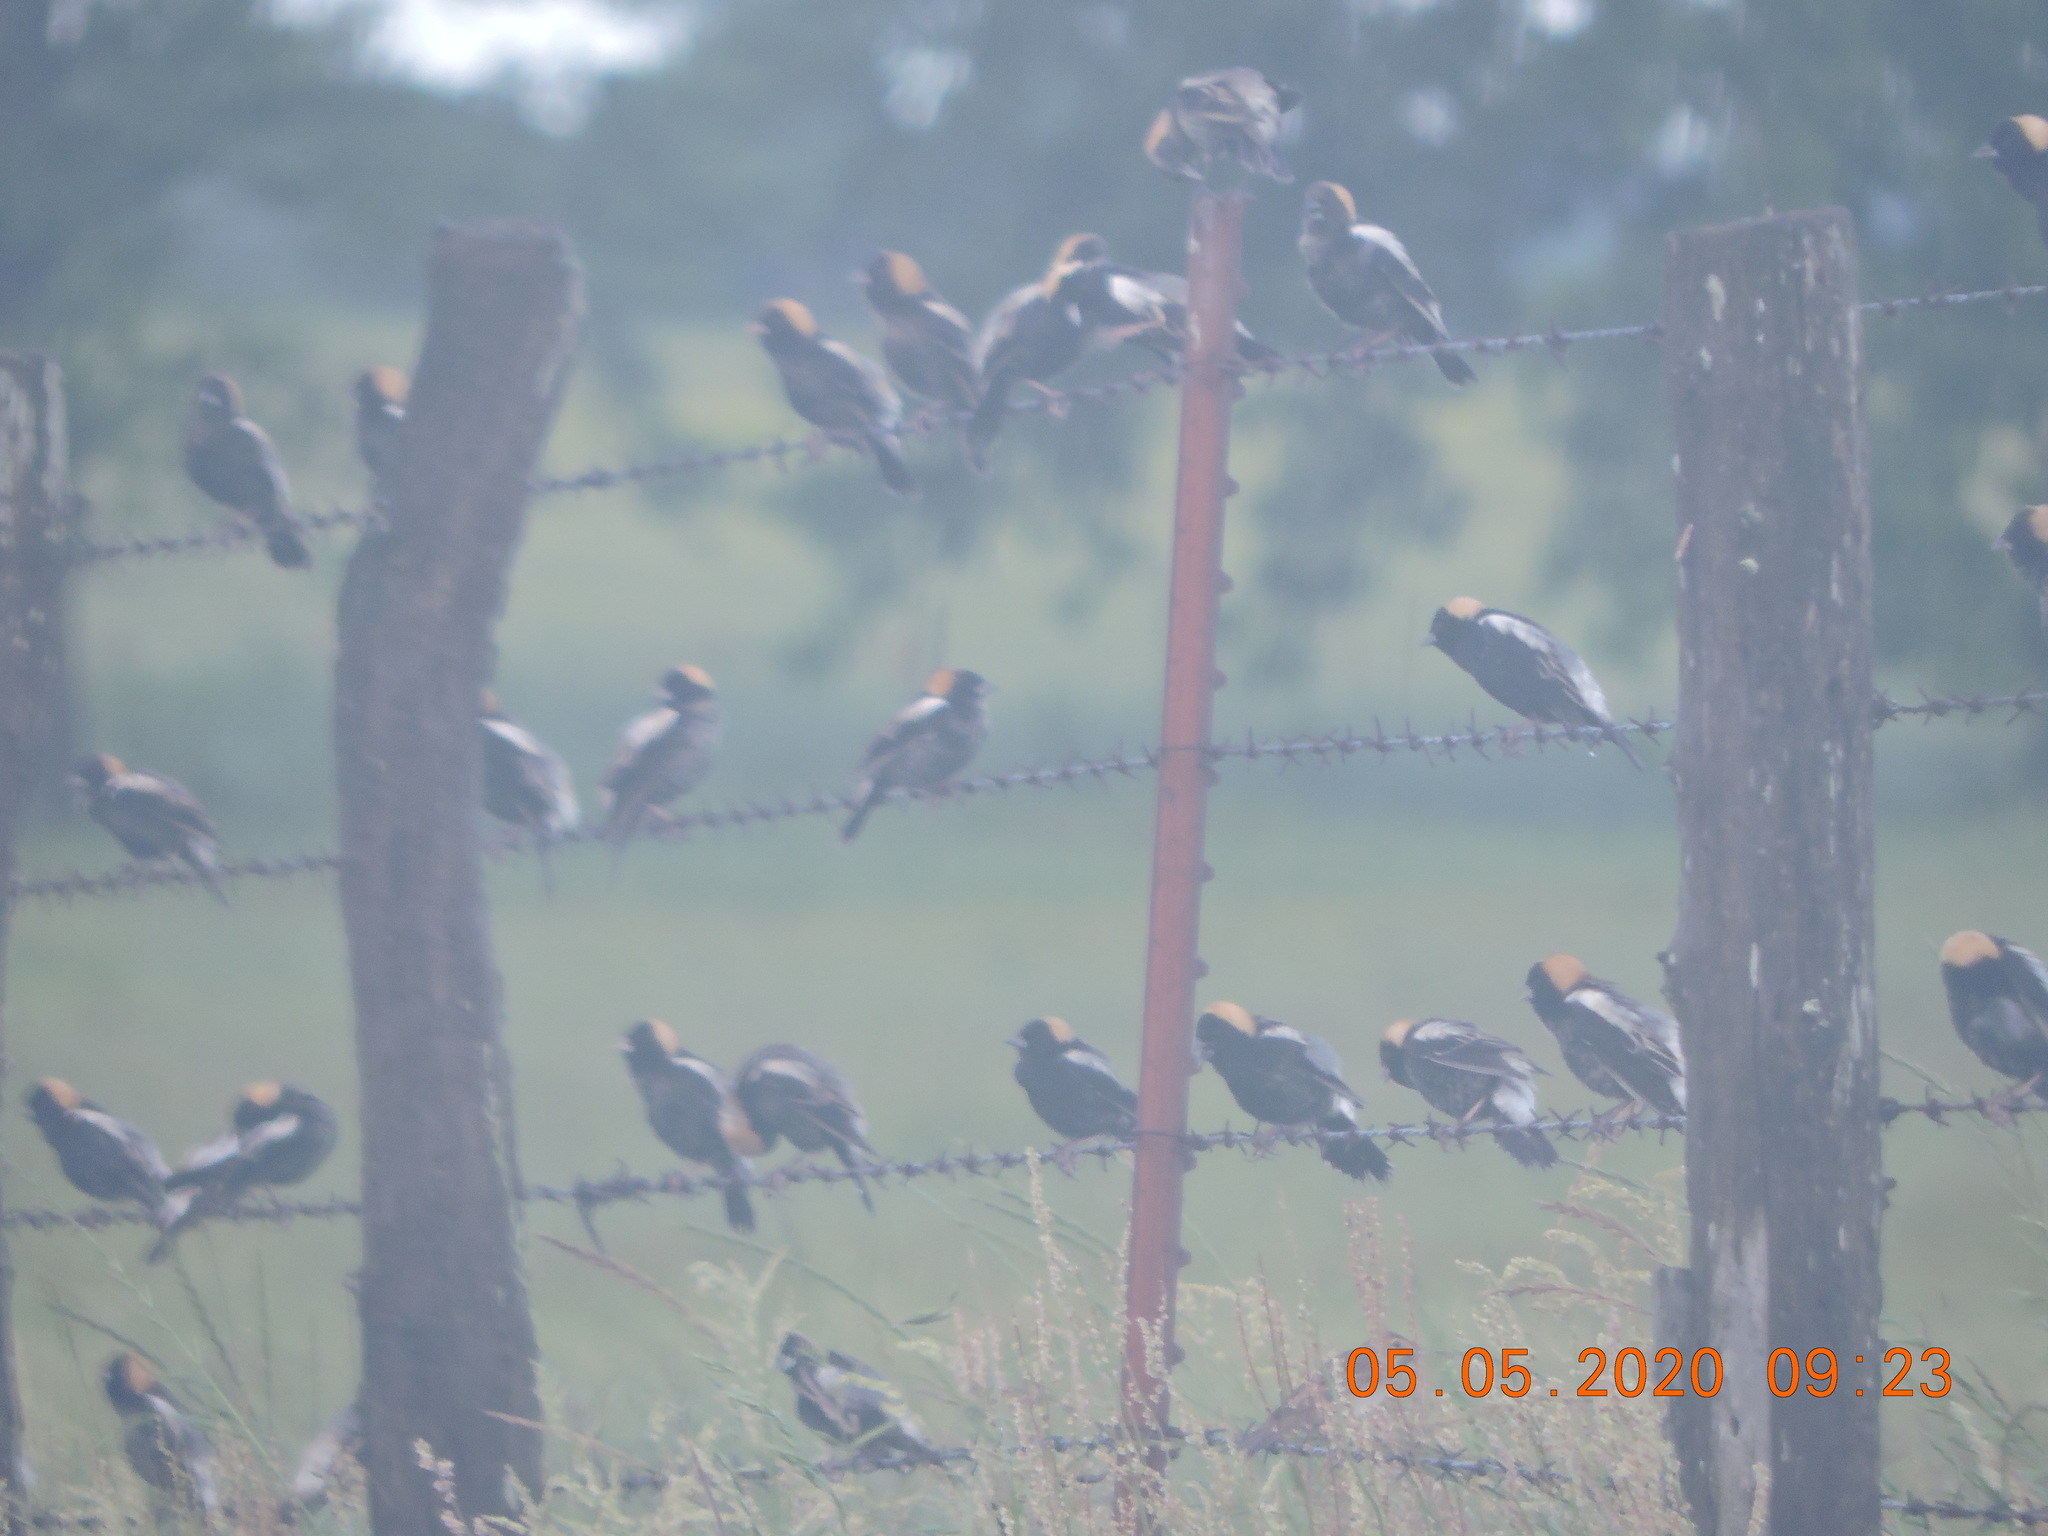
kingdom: Animalia
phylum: Chordata
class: Aves
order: Passeriformes
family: Icteridae
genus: Dolichonyx
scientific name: Dolichonyx oryzivorus
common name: Bobolink
